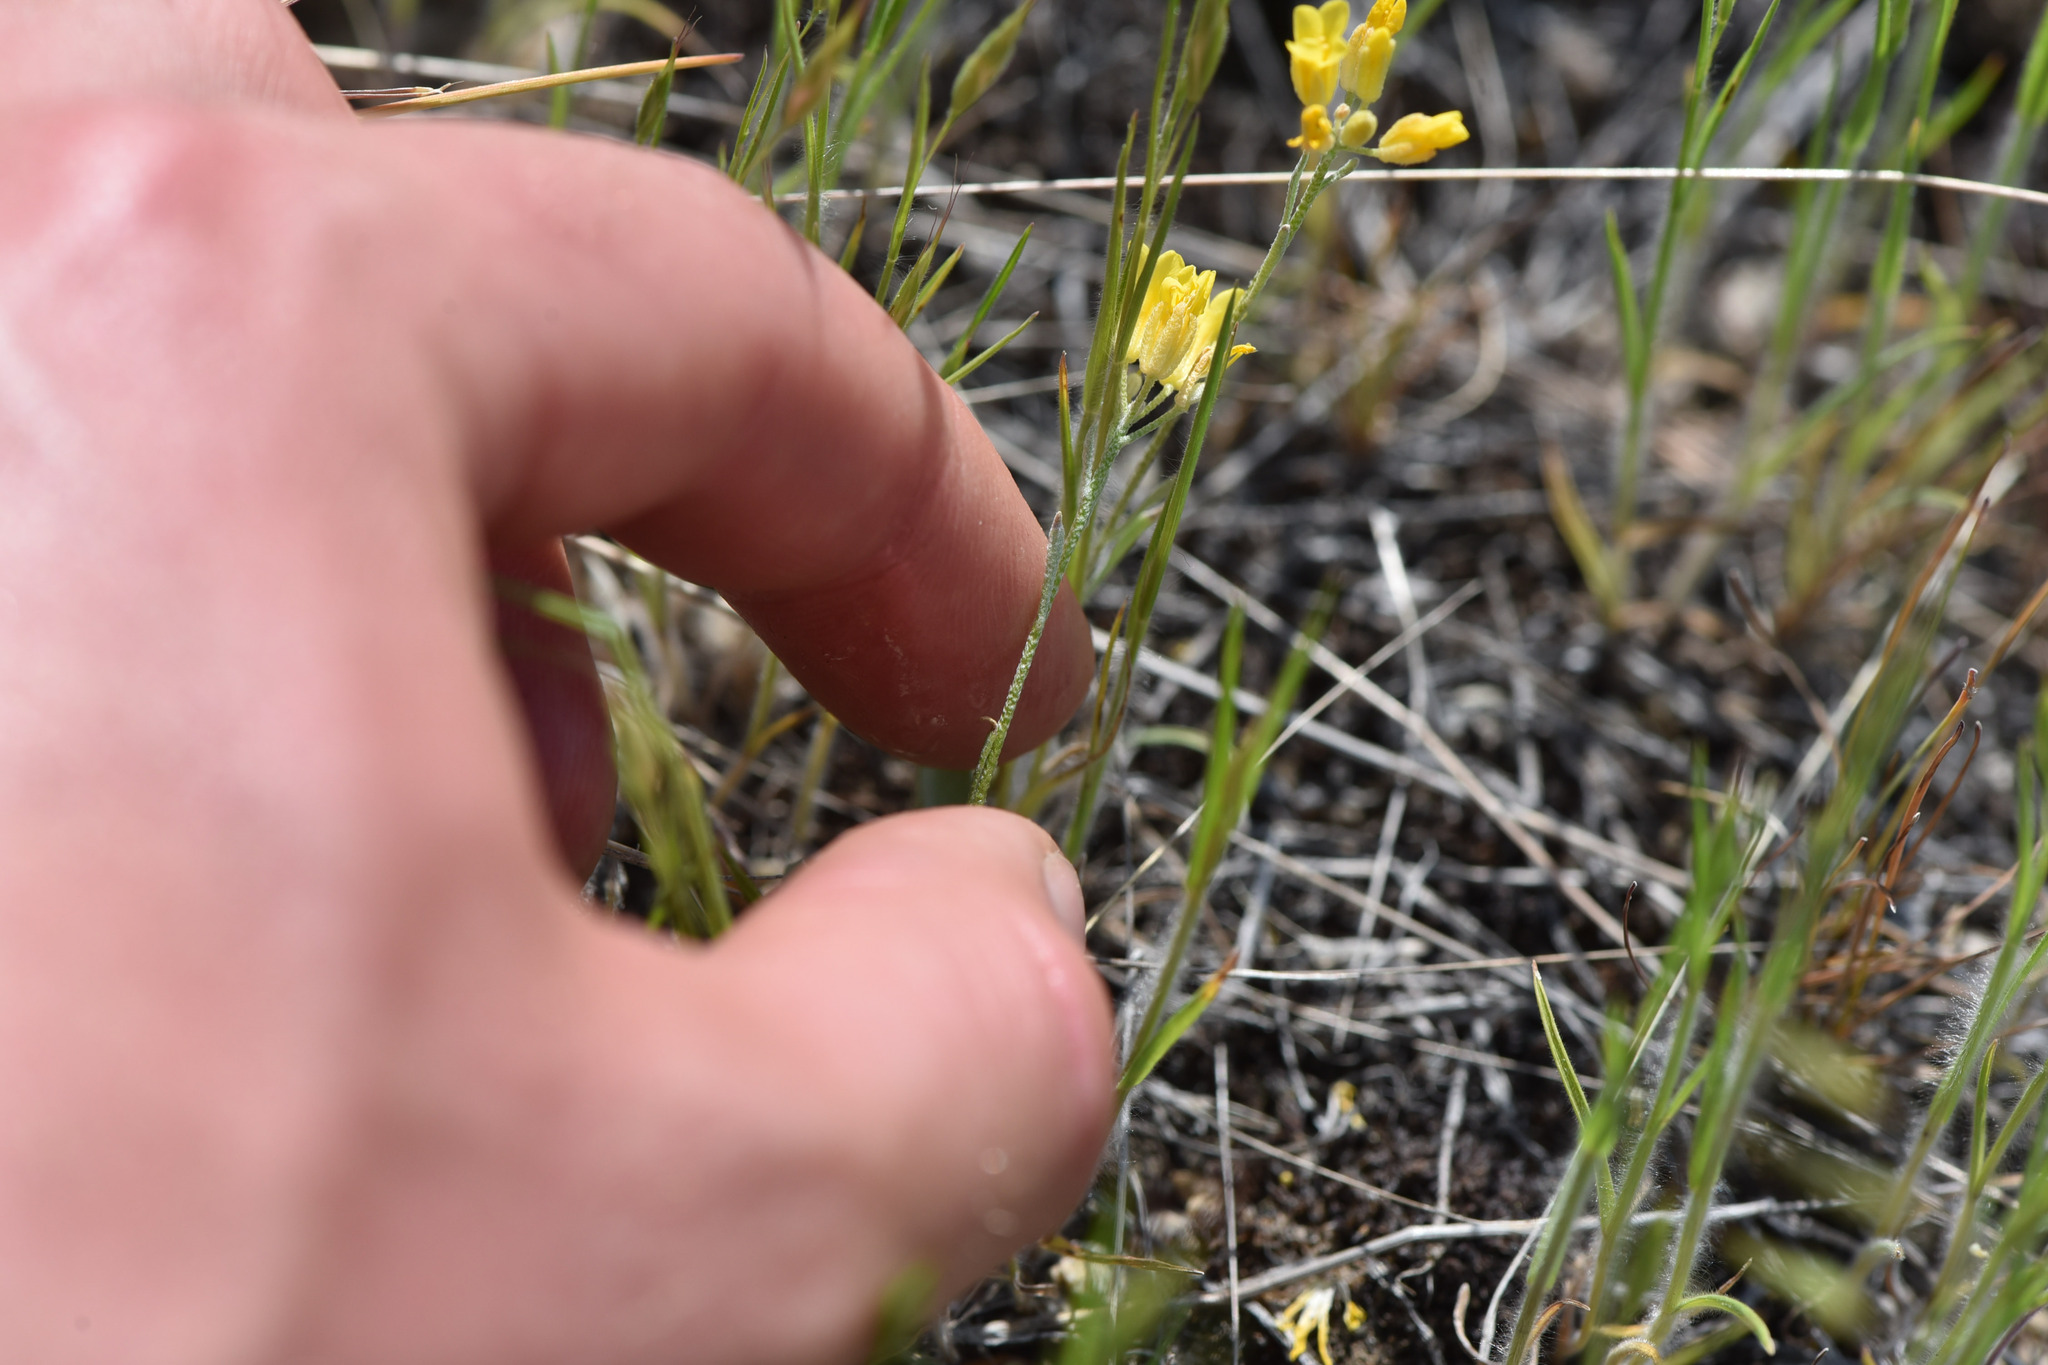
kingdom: Plantae
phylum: Tracheophyta
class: Magnoliopsida
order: Brassicales
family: Brassicaceae
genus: Physaria
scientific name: Physaria douglasii
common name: Douglas's bladderpod
